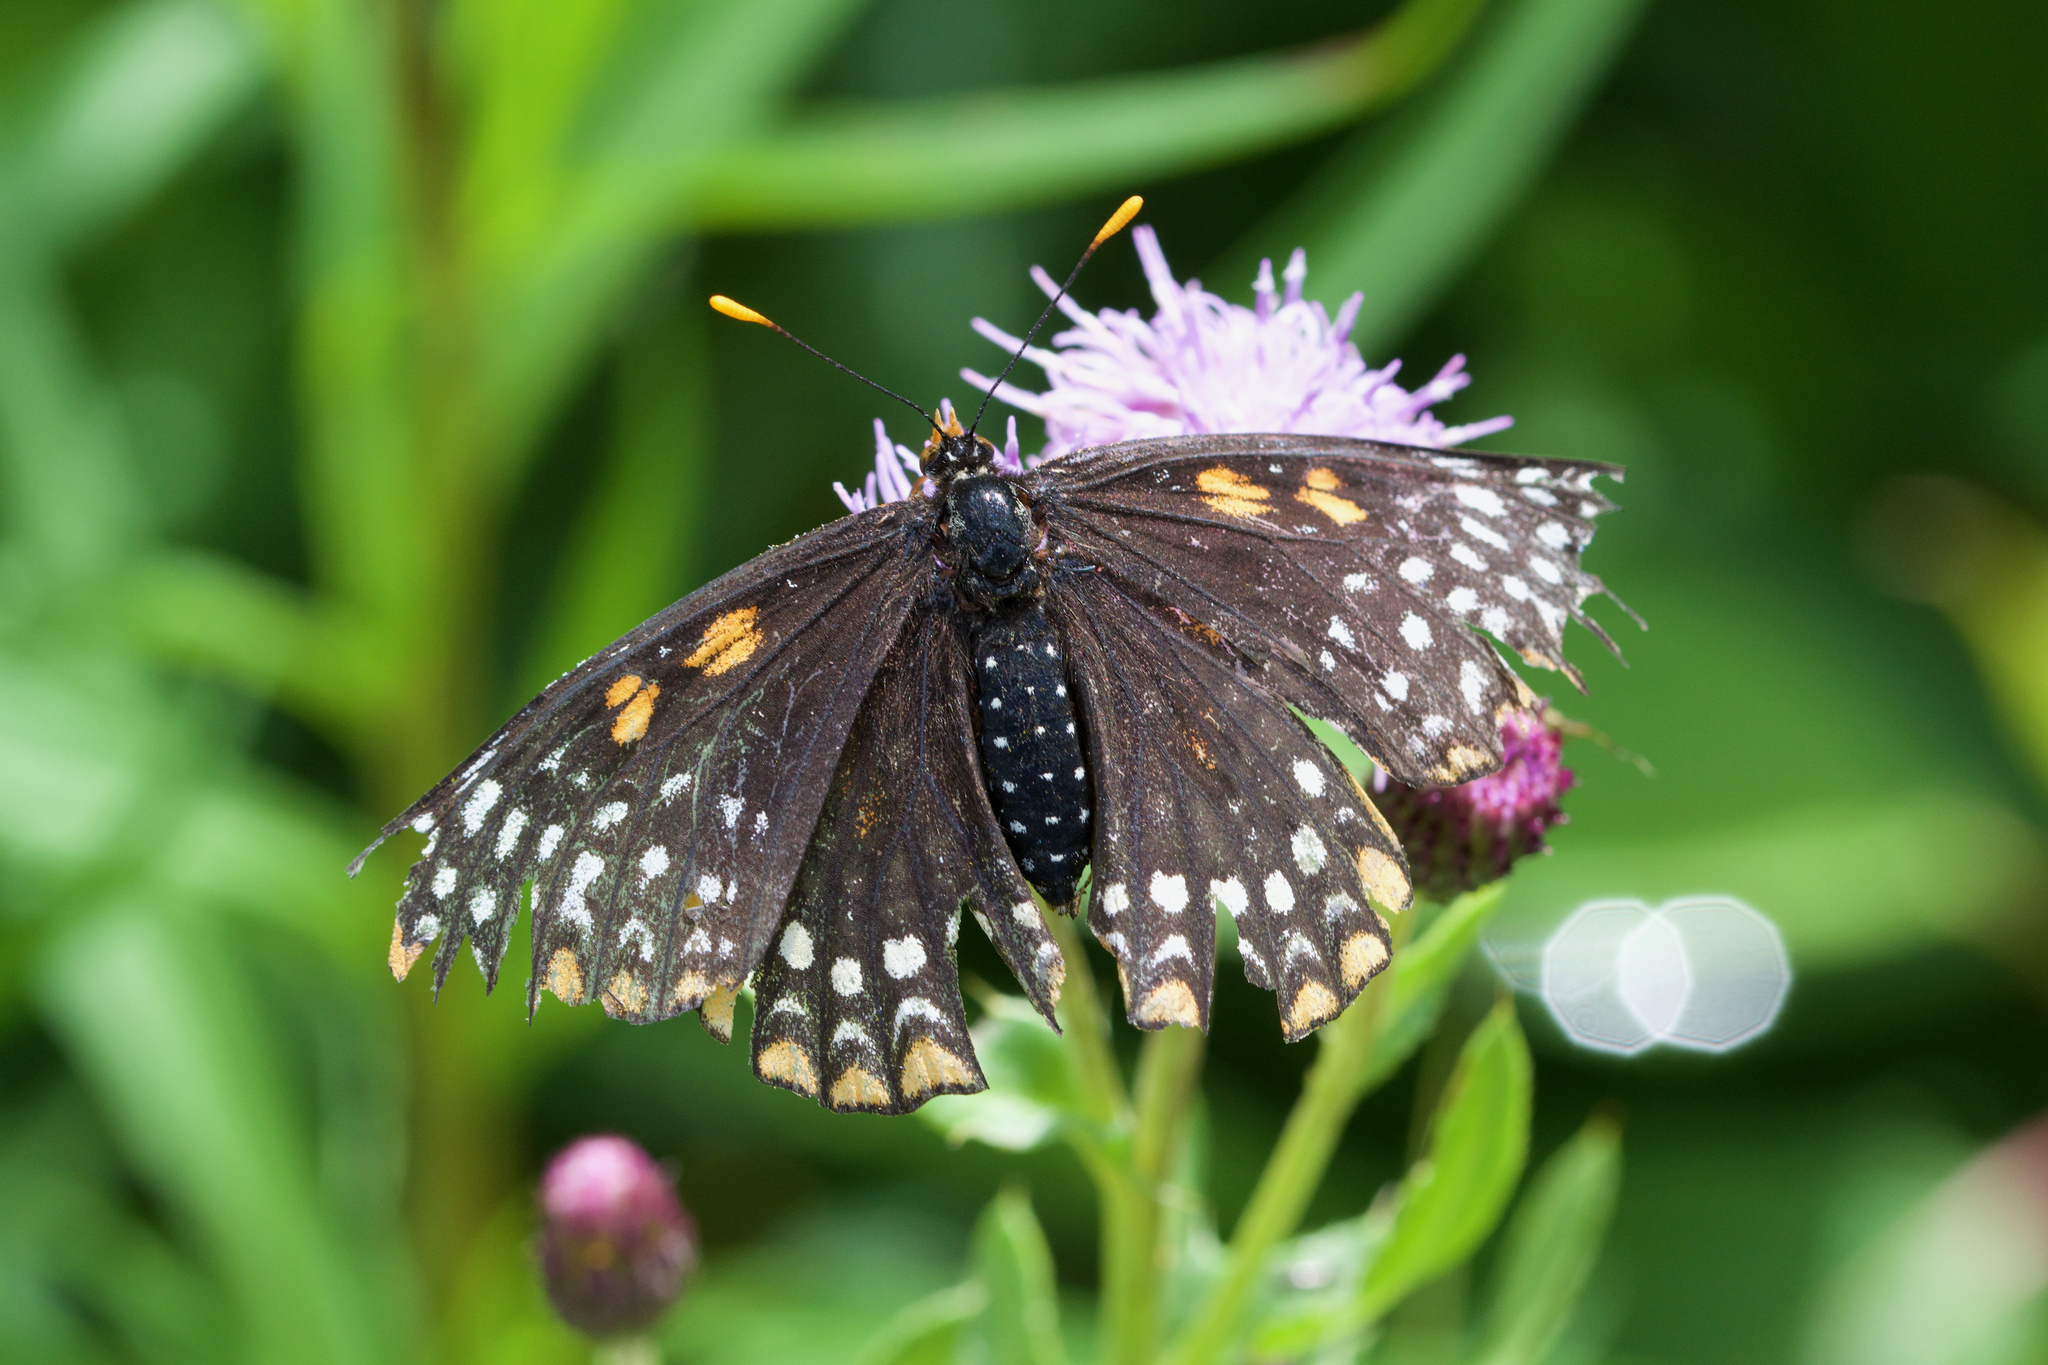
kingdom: Animalia
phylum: Arthropoda
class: Insecta
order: Lepidoptera
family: Nymphalidae
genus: Euphydryas
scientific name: Euphydryas phaeton
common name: Baltimore checkerspot
